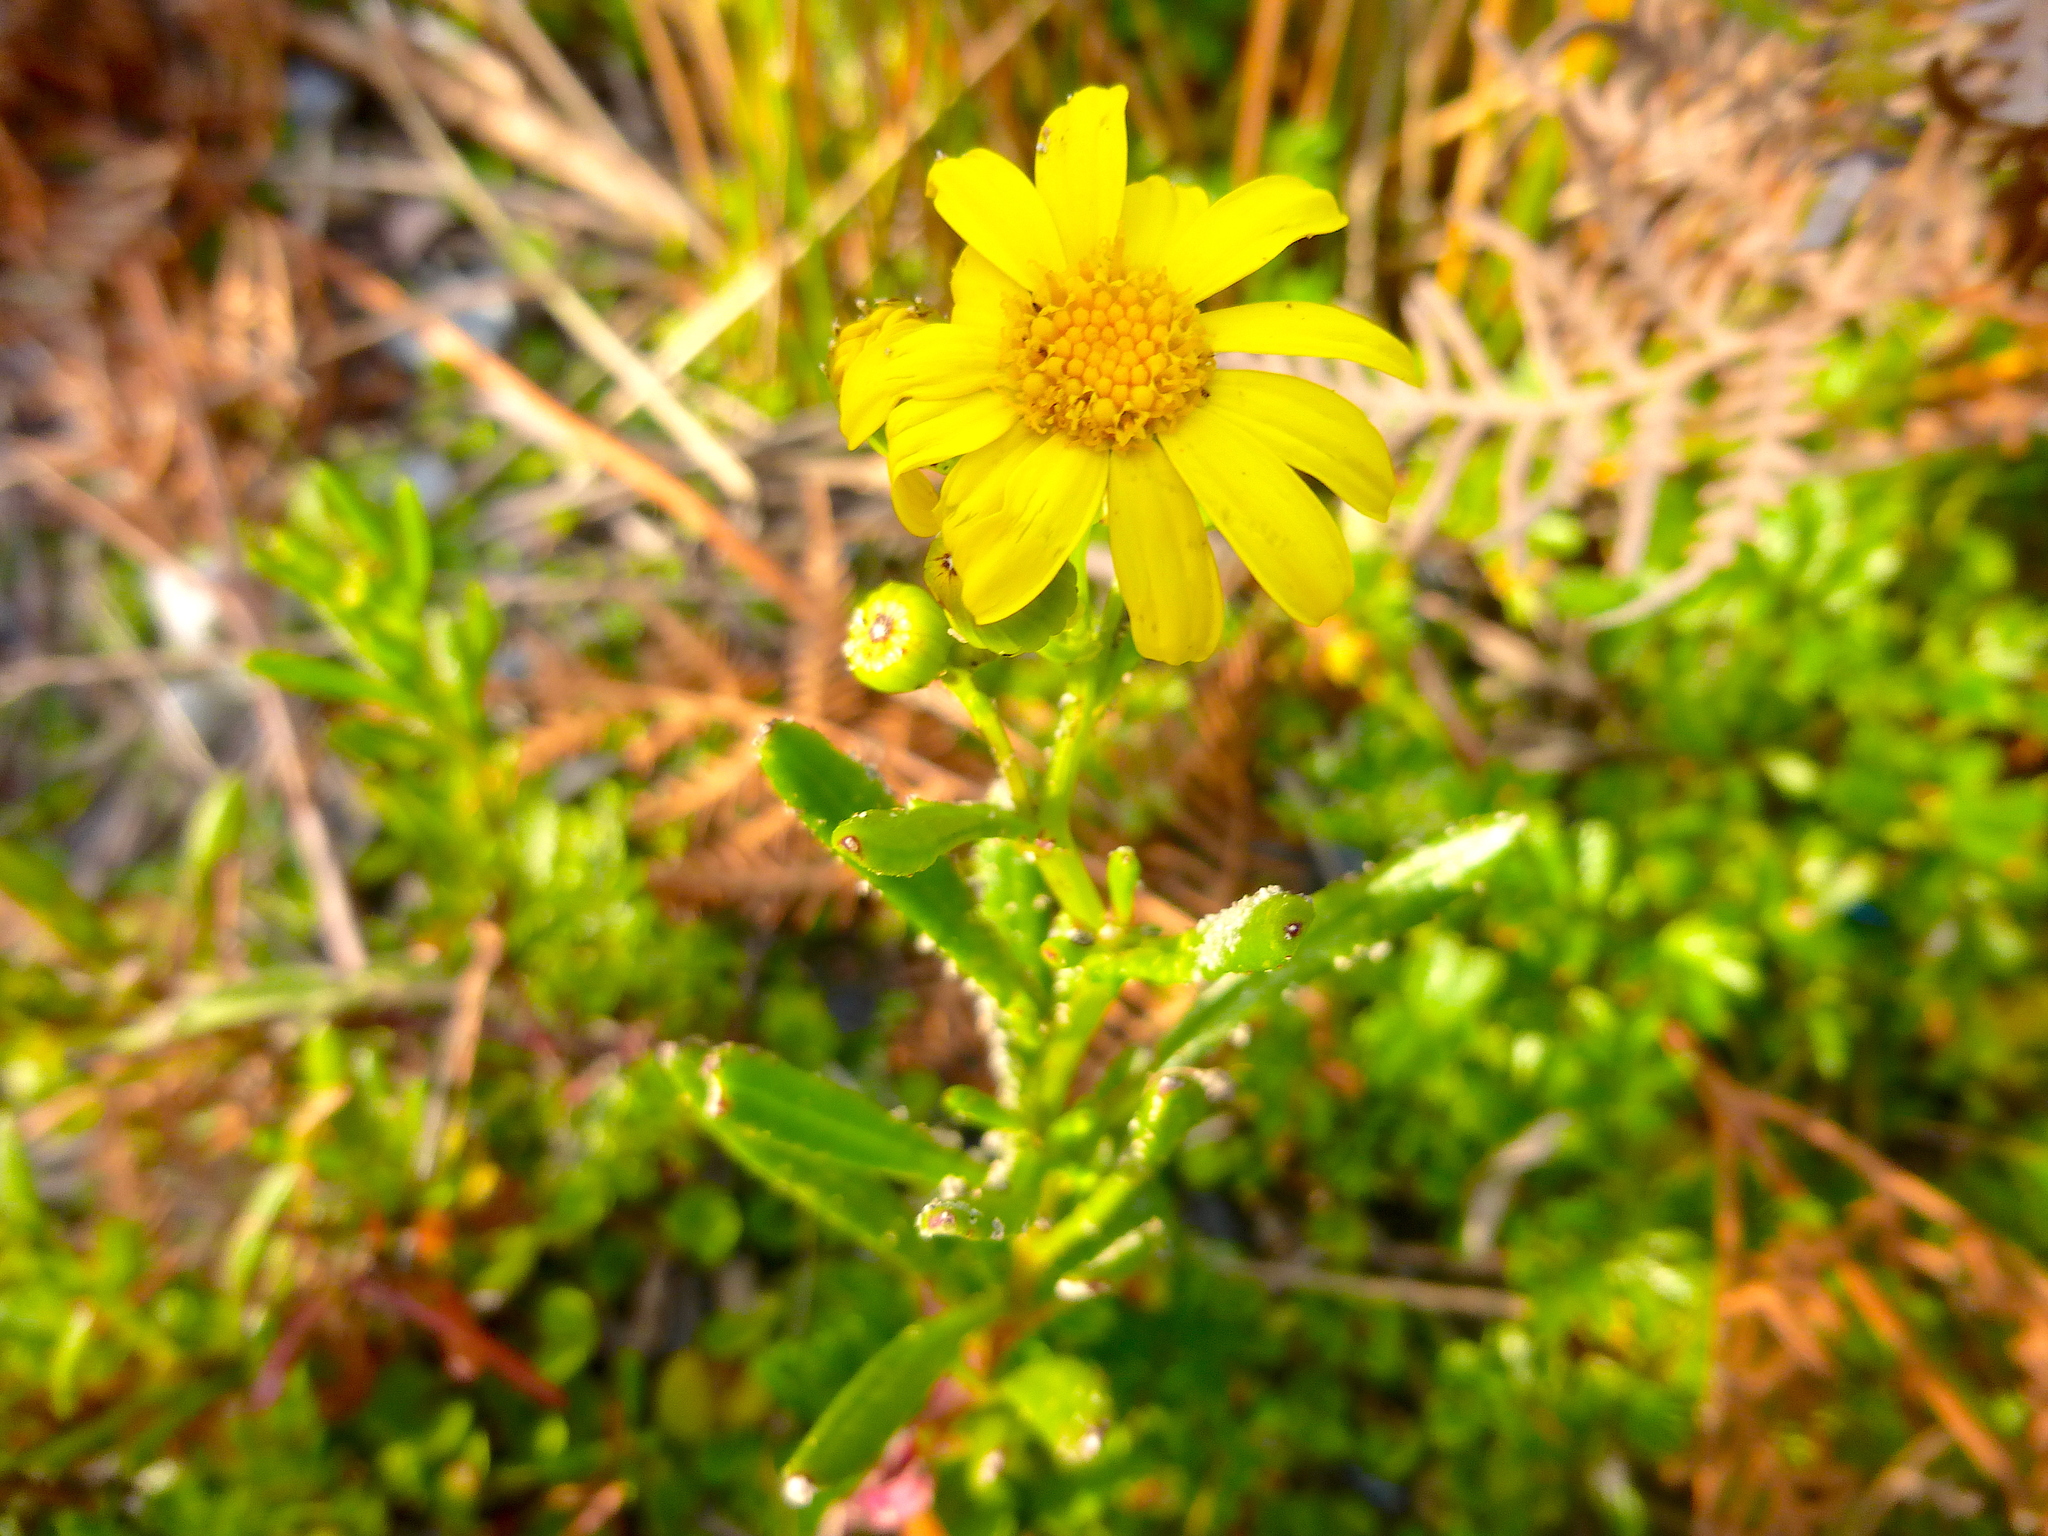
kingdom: Plantae
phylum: Tracheophyta
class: Magnoliopsida
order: Asterales
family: Asteraceae
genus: Senecio
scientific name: Senecio pinnatifolius
